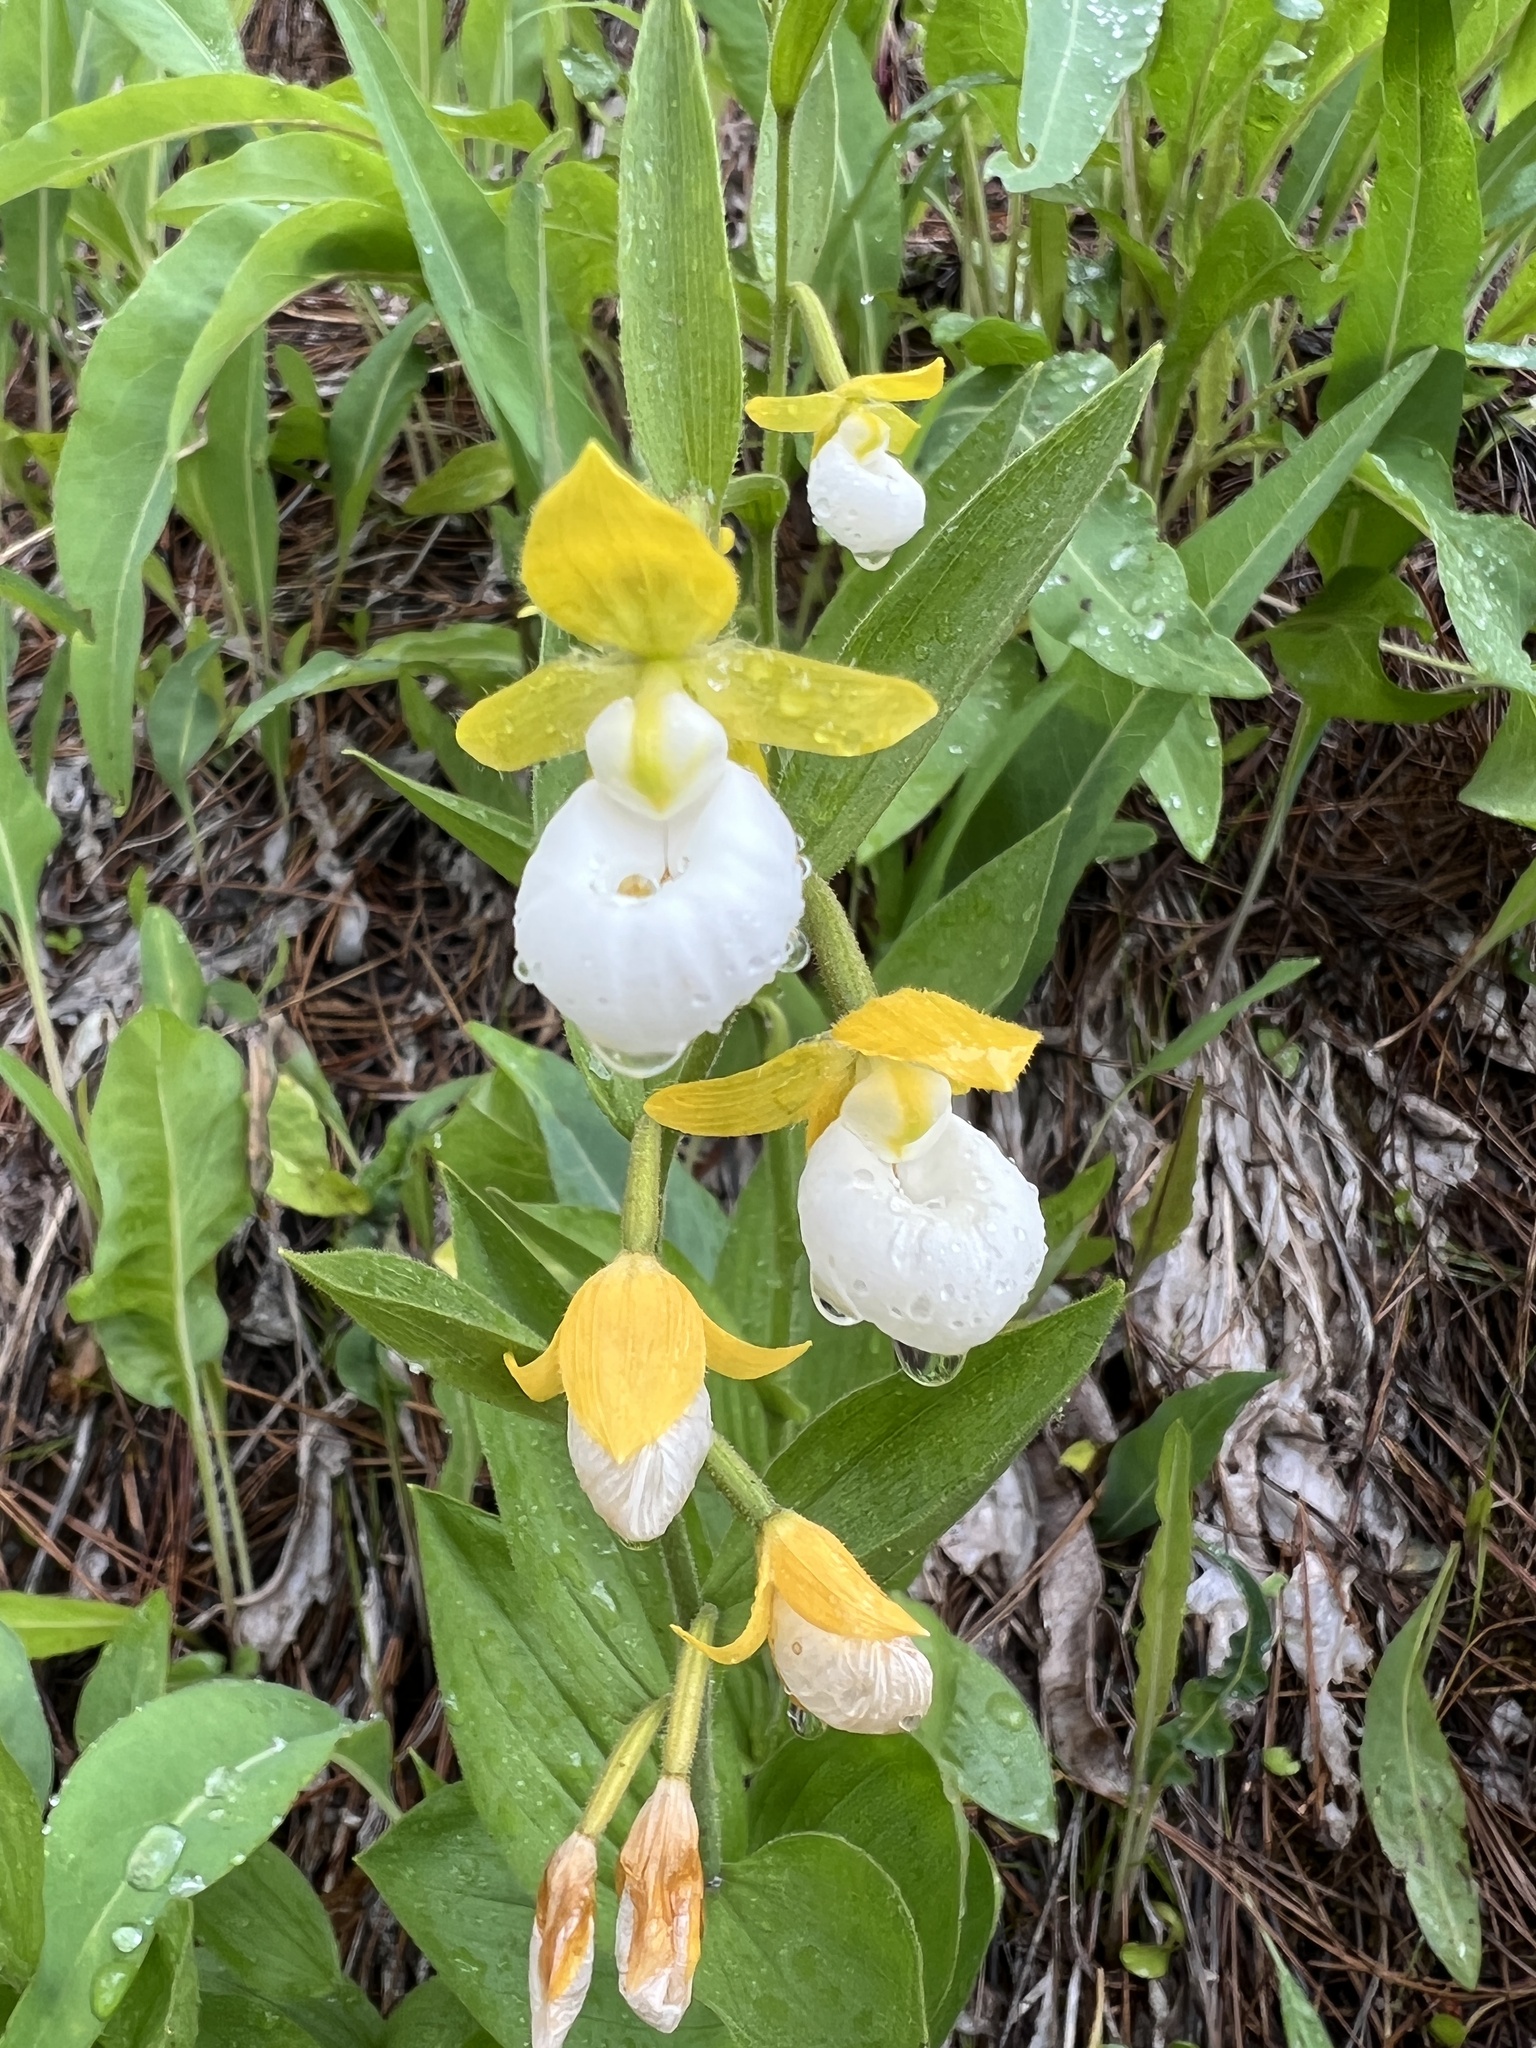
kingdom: Plantae
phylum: Tracheophyta
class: Liliopsida
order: Asparagales
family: Orchidaceae
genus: Cypripedium
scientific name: Cypripedium californicum
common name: California lady's slipper
